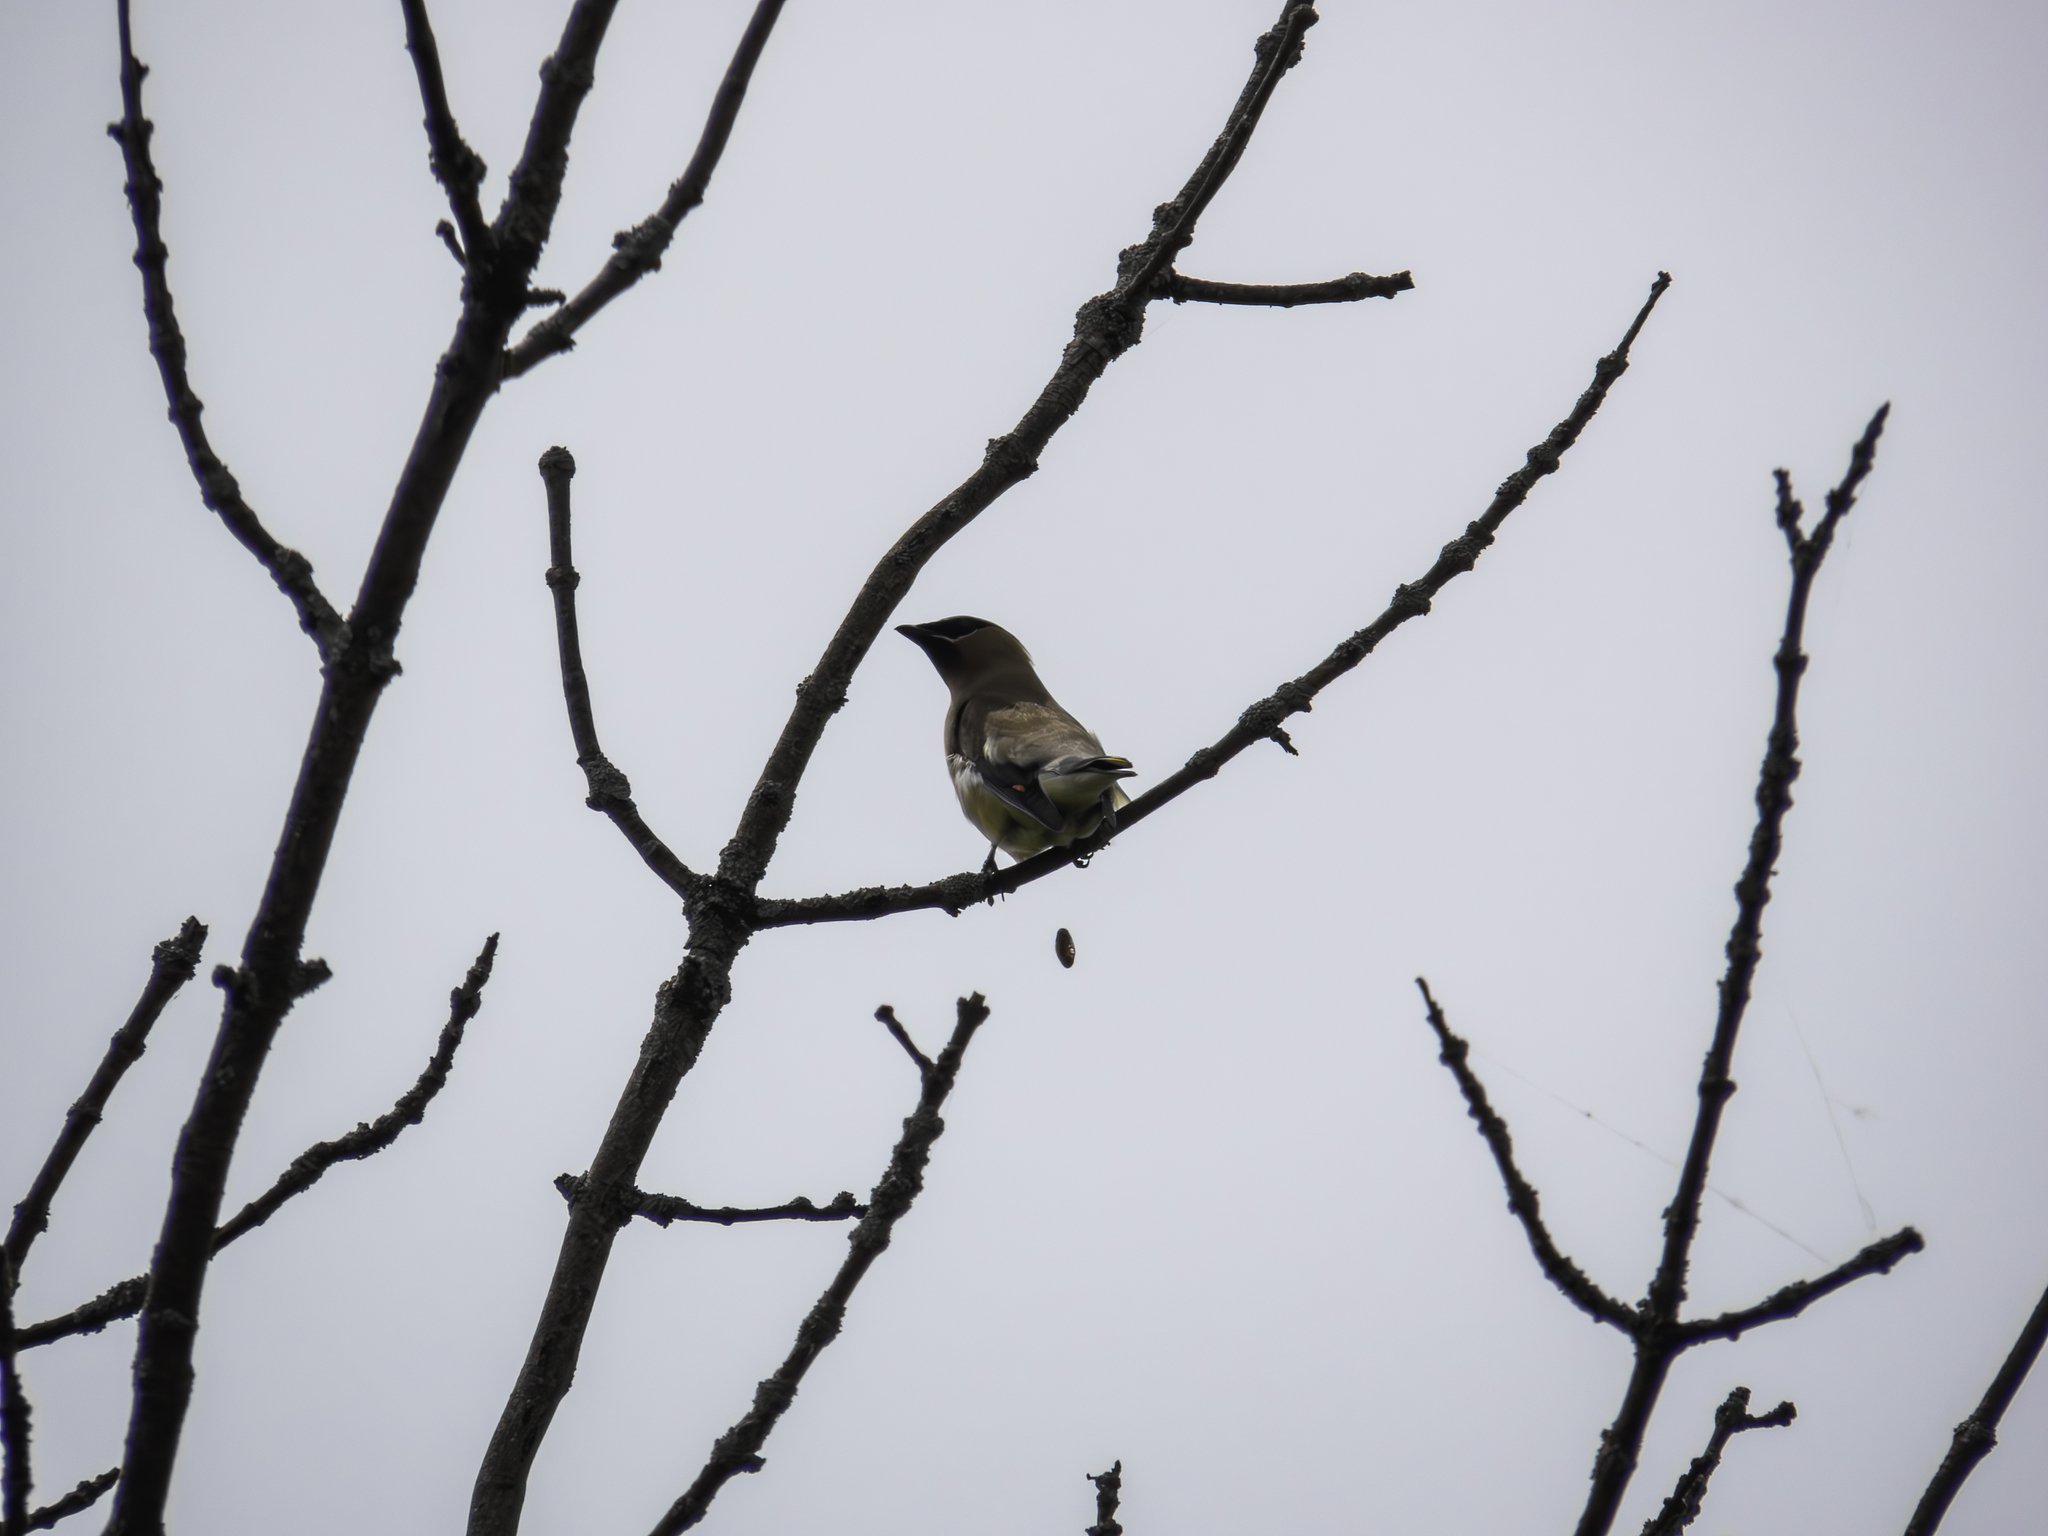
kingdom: Animalia
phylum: Chordata
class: Aves
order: Passeriformes
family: Bombycillidae
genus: Bombycilla
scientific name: Bombycilla cedrorum
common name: Cedar waxwing
